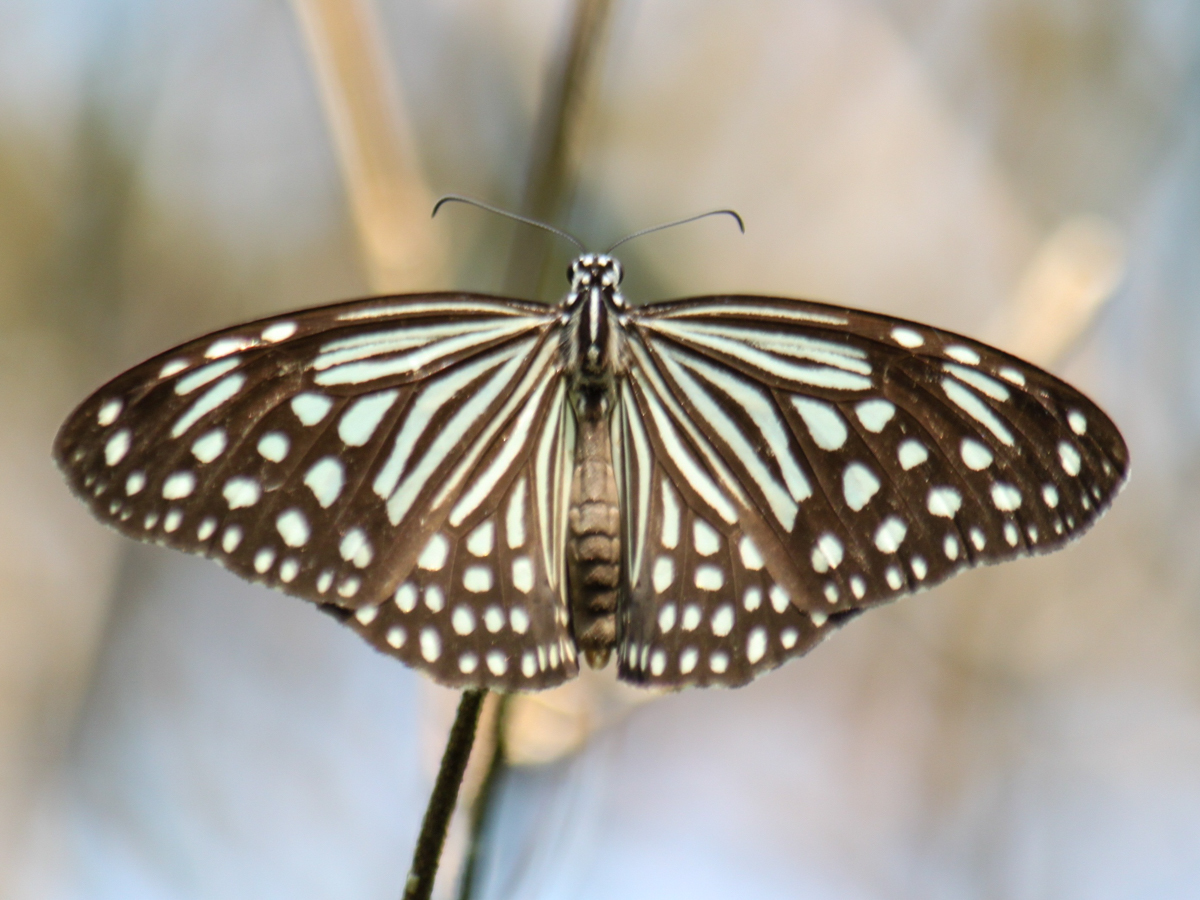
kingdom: Animalia
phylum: Arthropoda
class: Insecta
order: Lepidoptera
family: Nymphalidae
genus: Parantica
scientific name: Parantica agleoides
